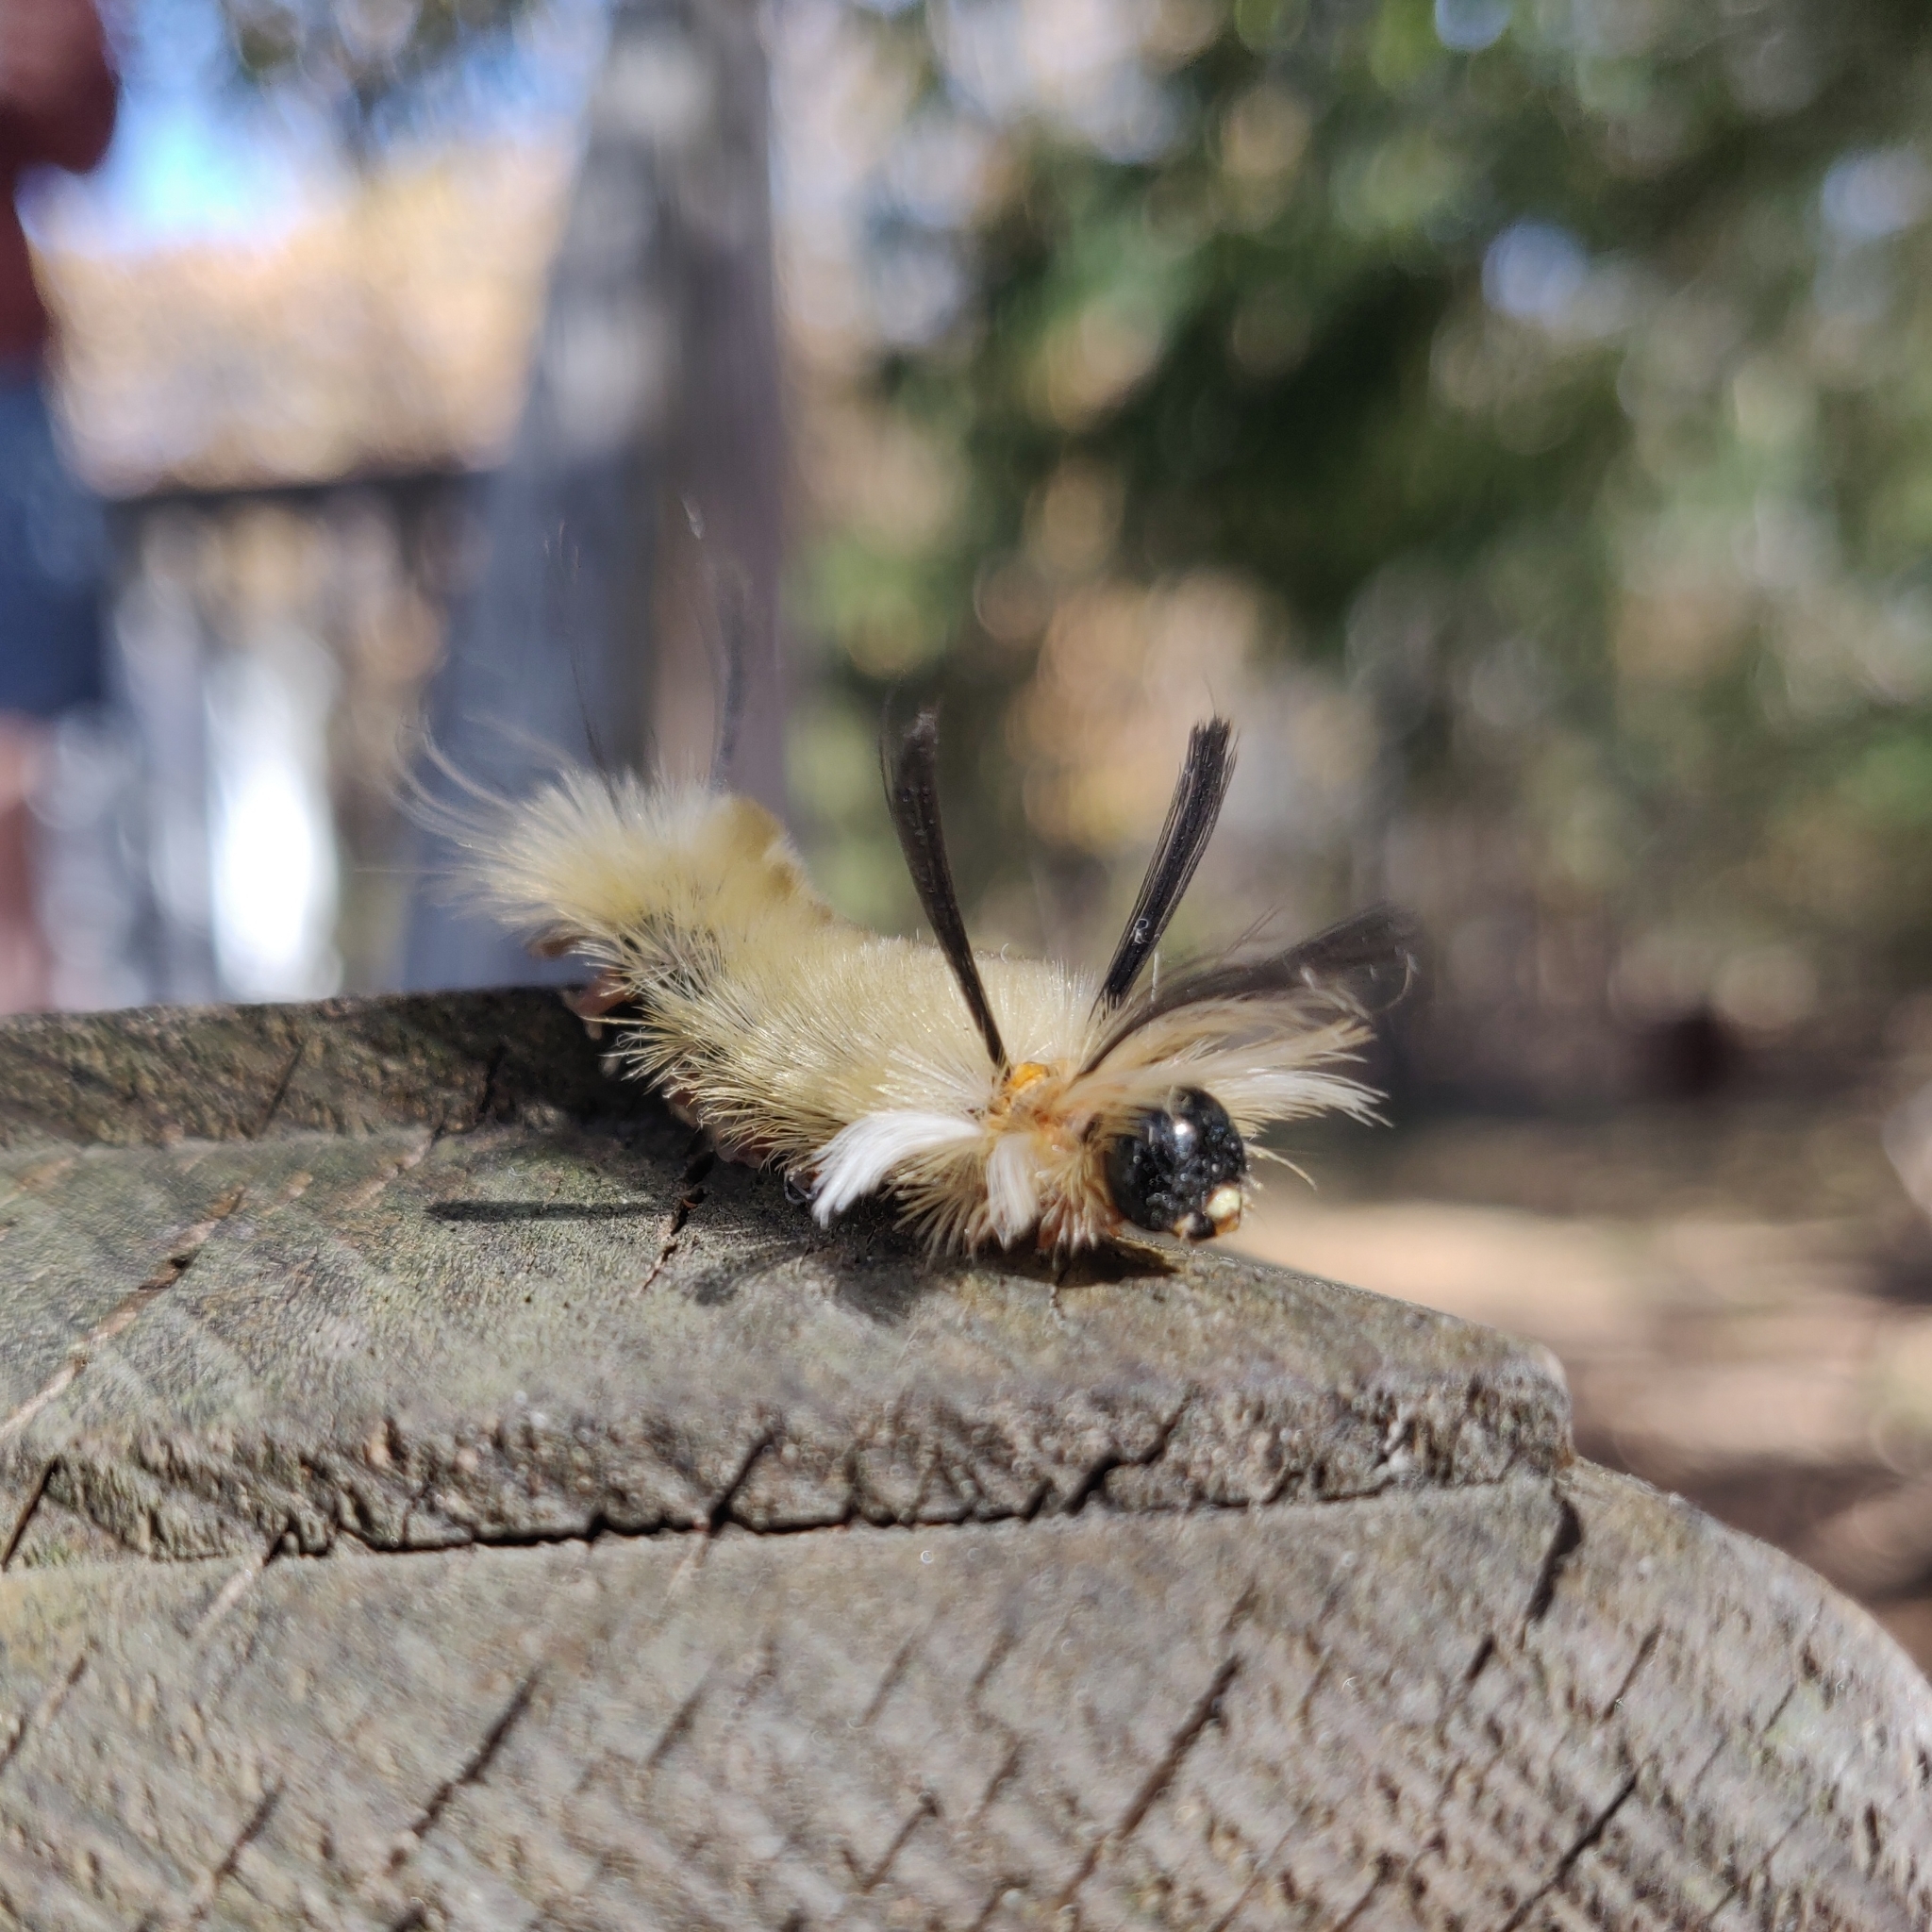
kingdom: Animalia
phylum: Arthropoda
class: Insecta
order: Lepidoptera
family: Erebidae
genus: Halysidota
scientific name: Halysidota tessellaris
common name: Banded tussock moth
